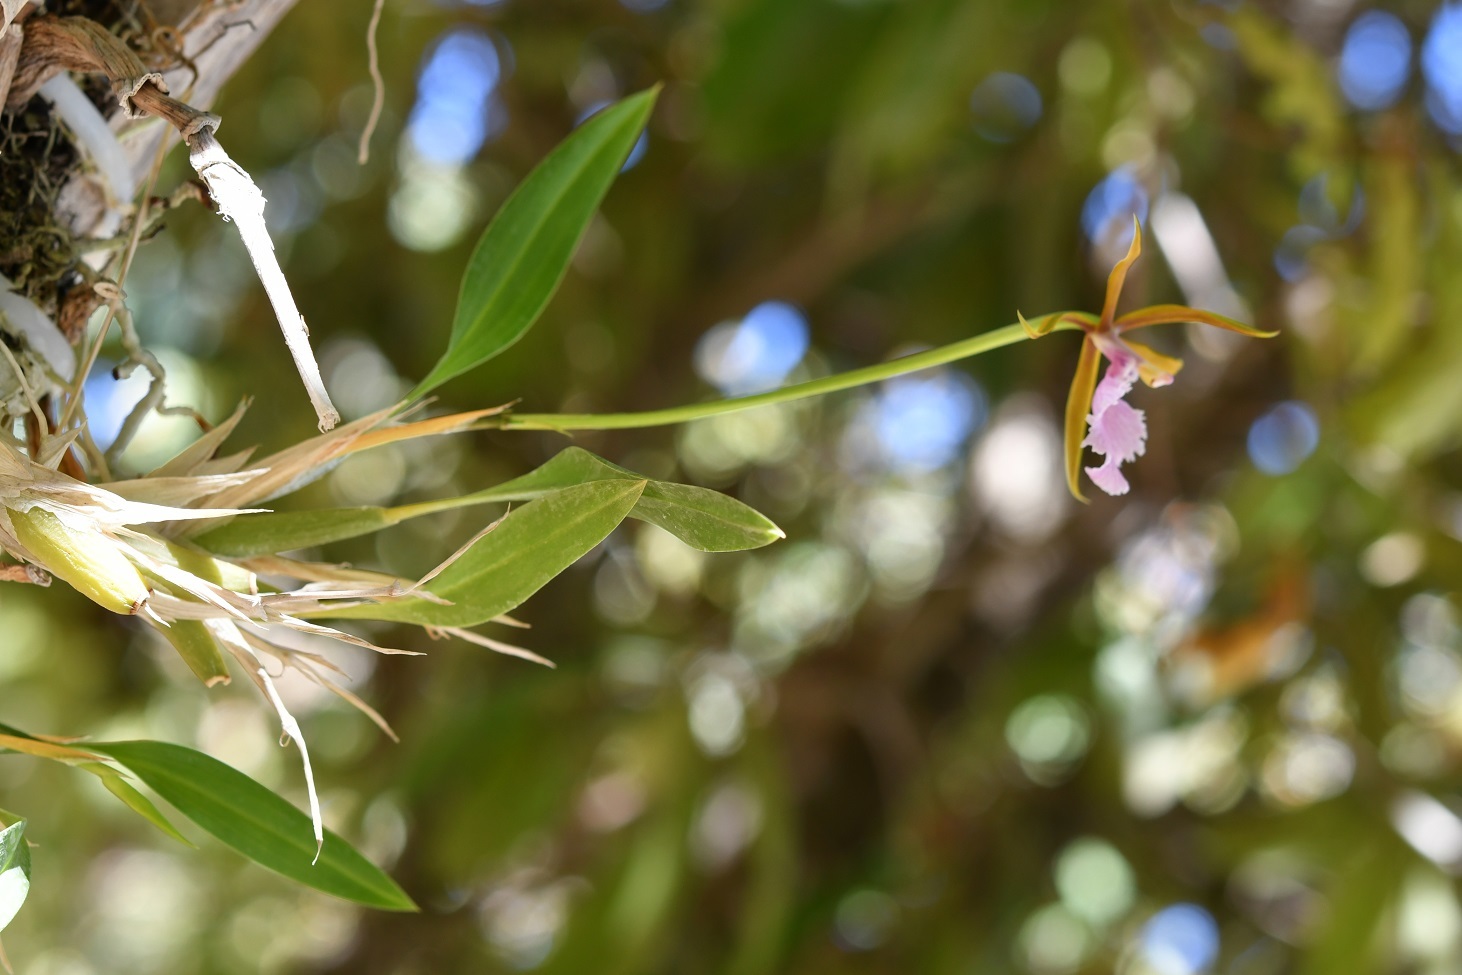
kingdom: Plantae
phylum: Tracheophyta
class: Liliopsida
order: Asparagales
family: Orchidaceae
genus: Rhynchostele
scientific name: Rhynchostele stellata
